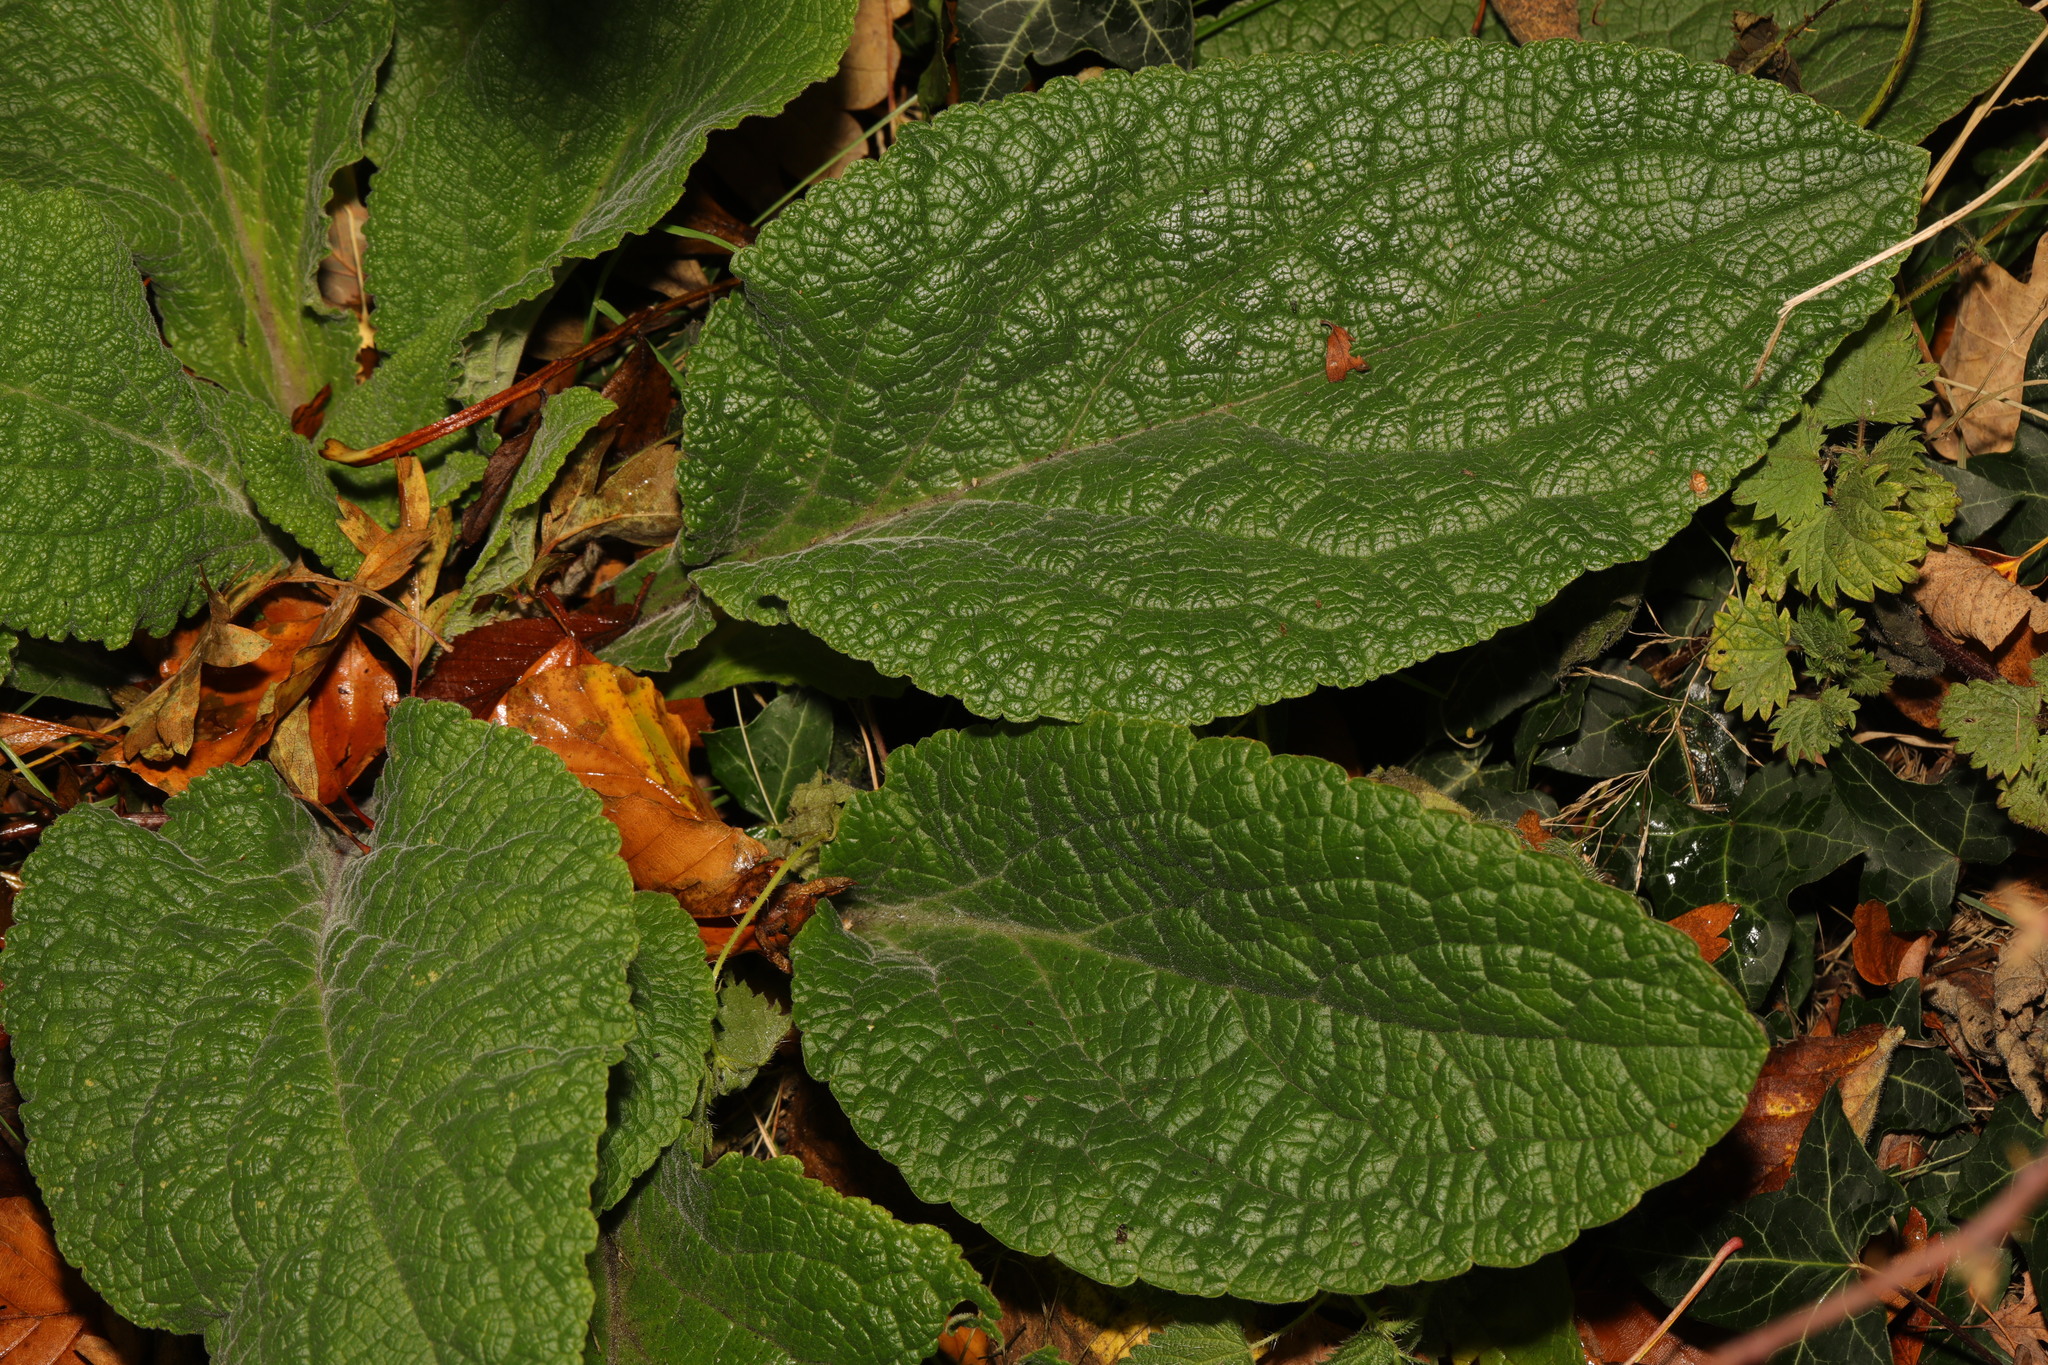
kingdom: Plantae
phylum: Tracheophyta
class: Magnoliopsida
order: Lamiales
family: Plantaginaceae
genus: Digitalis
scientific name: Digitalis purpurea
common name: Foxglove
